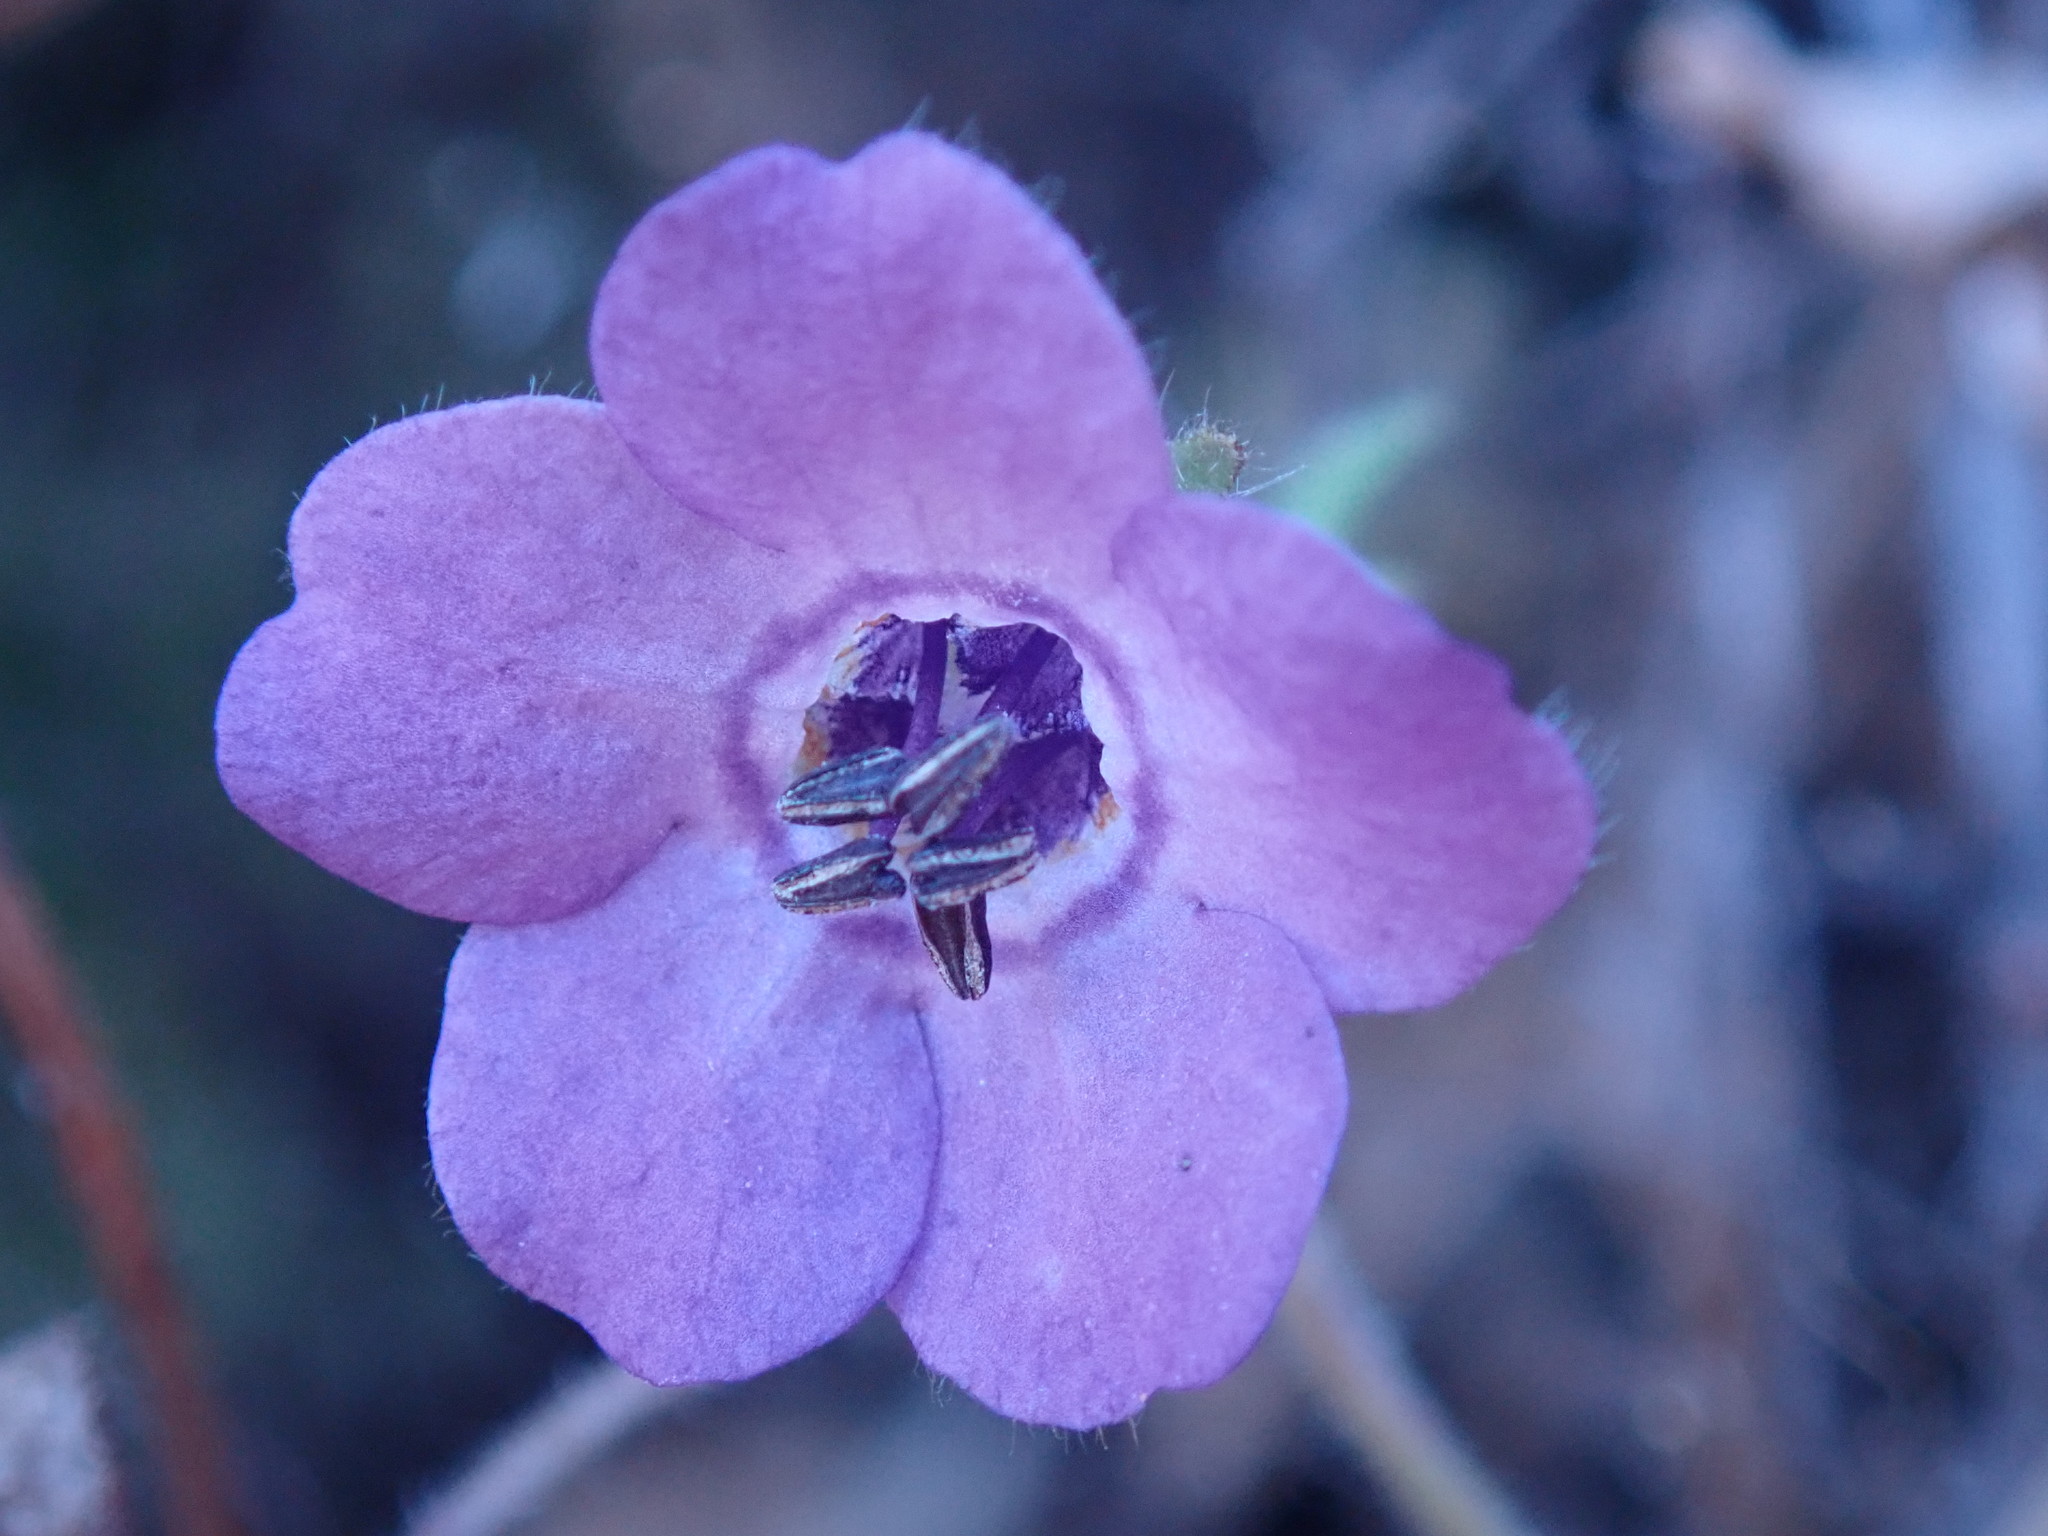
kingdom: Plantae
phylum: Tracheophyta
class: Magnoliopsida
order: Boraginales
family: Hydrophyllaceae
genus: Pholistoma
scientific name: Pholistoma auritum
